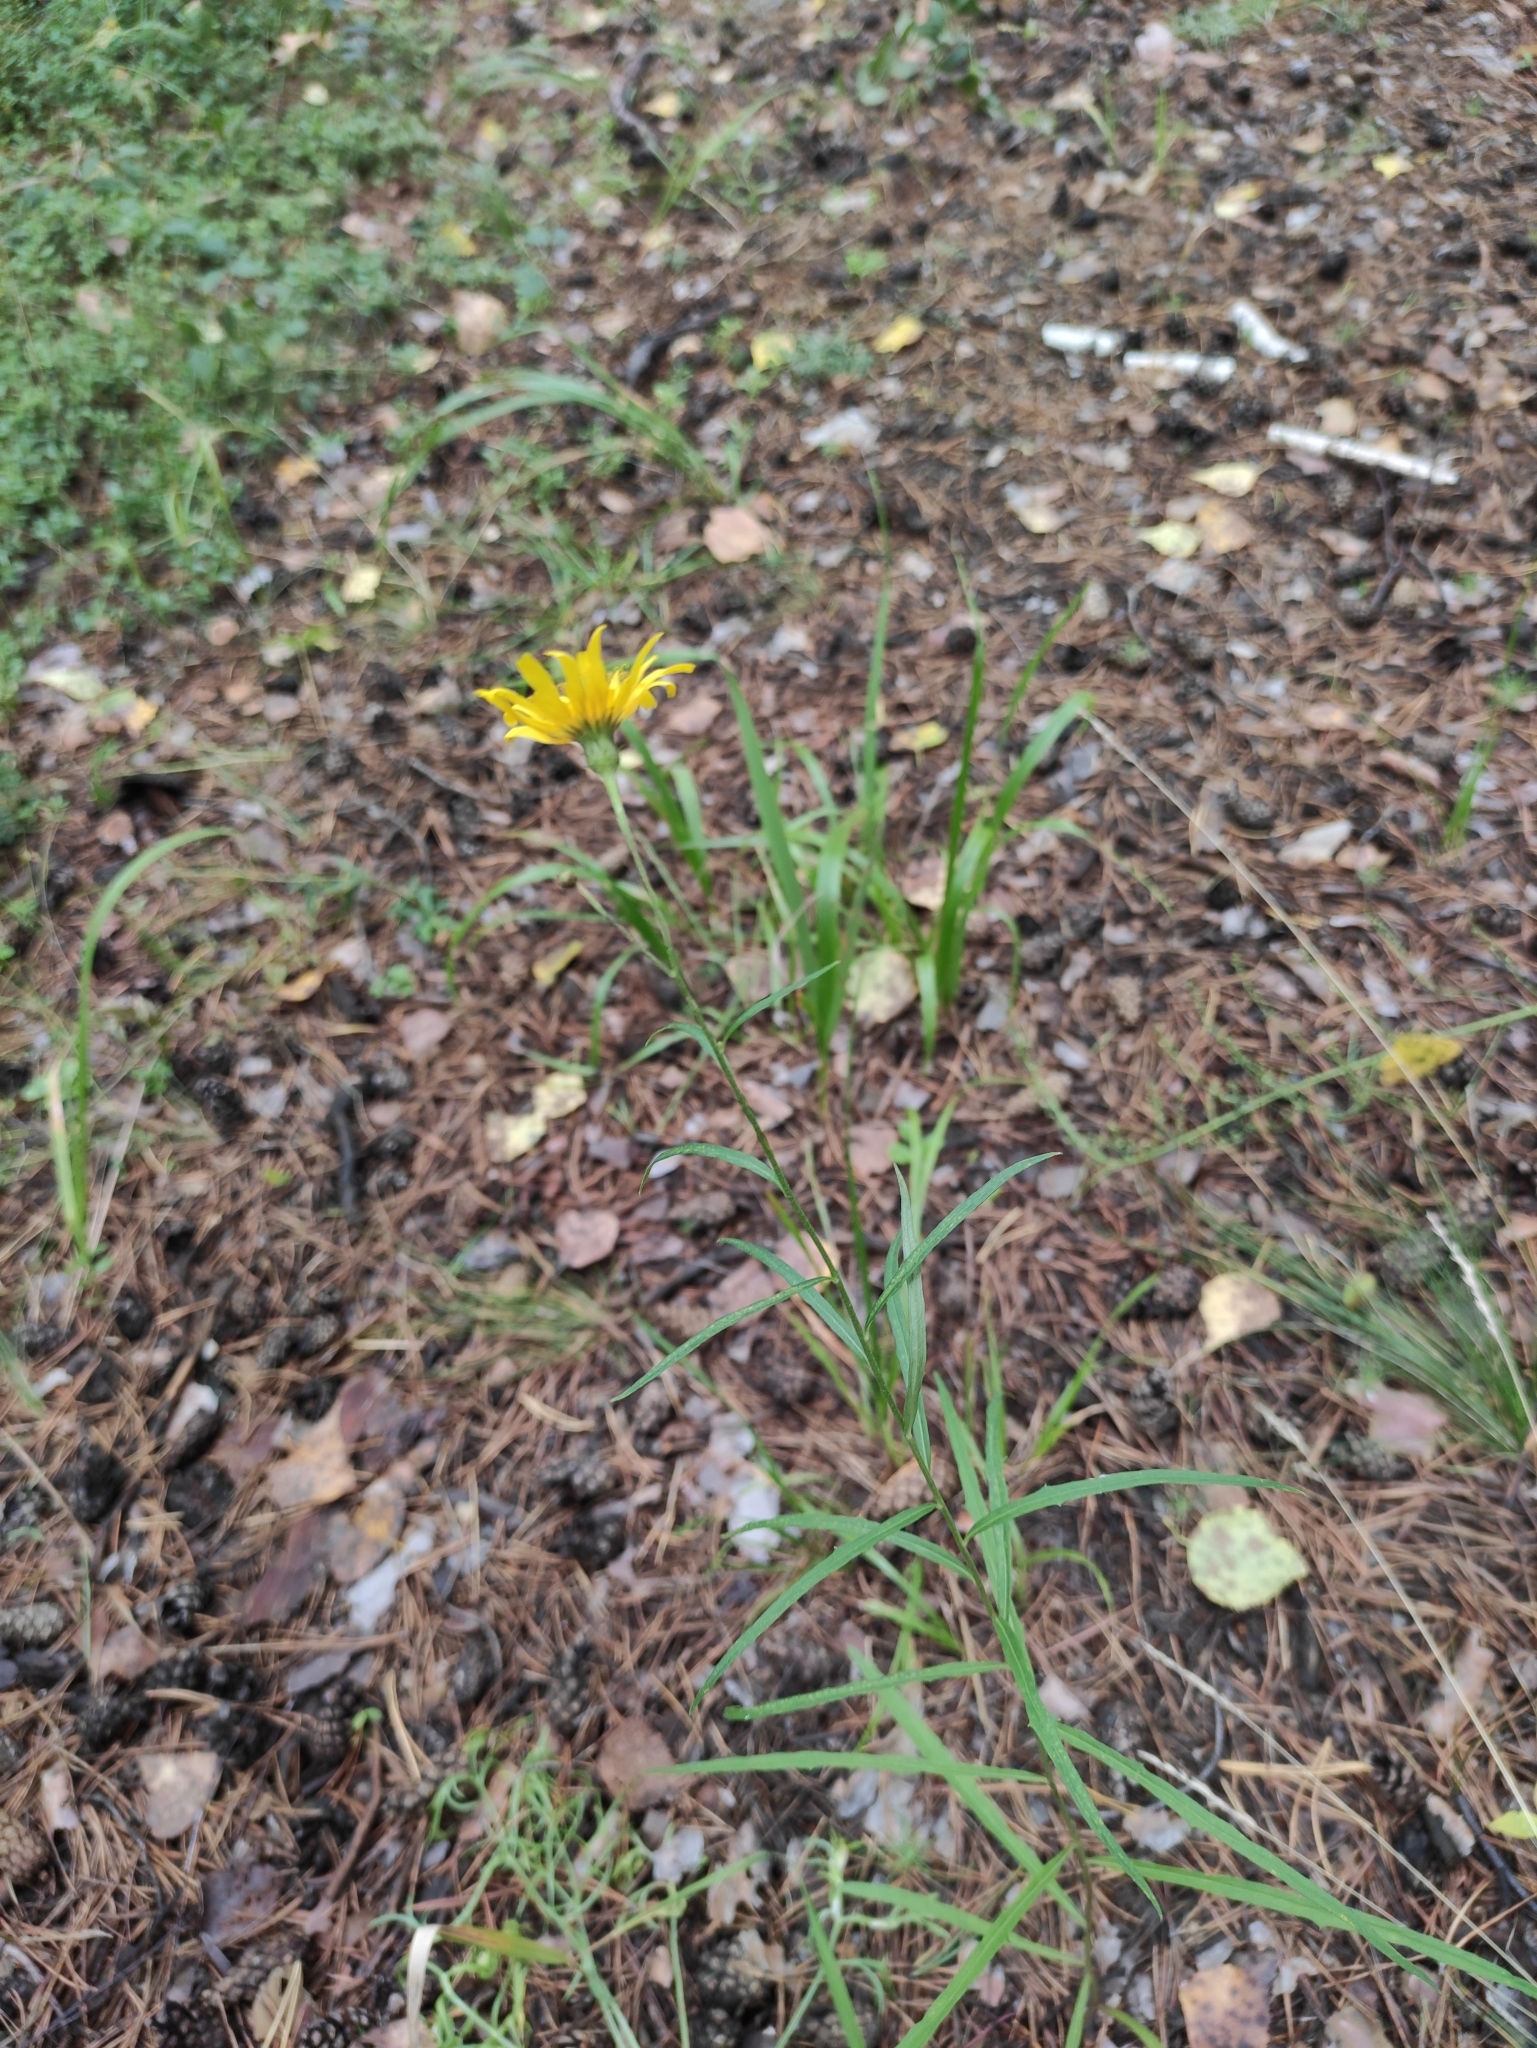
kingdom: Plantae
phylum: Tracheophyta
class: Magnoliopsida
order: Asterales
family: Asteraceae
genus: Hieracium
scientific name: Hieracium umbellatum
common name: Northern hawkweed
